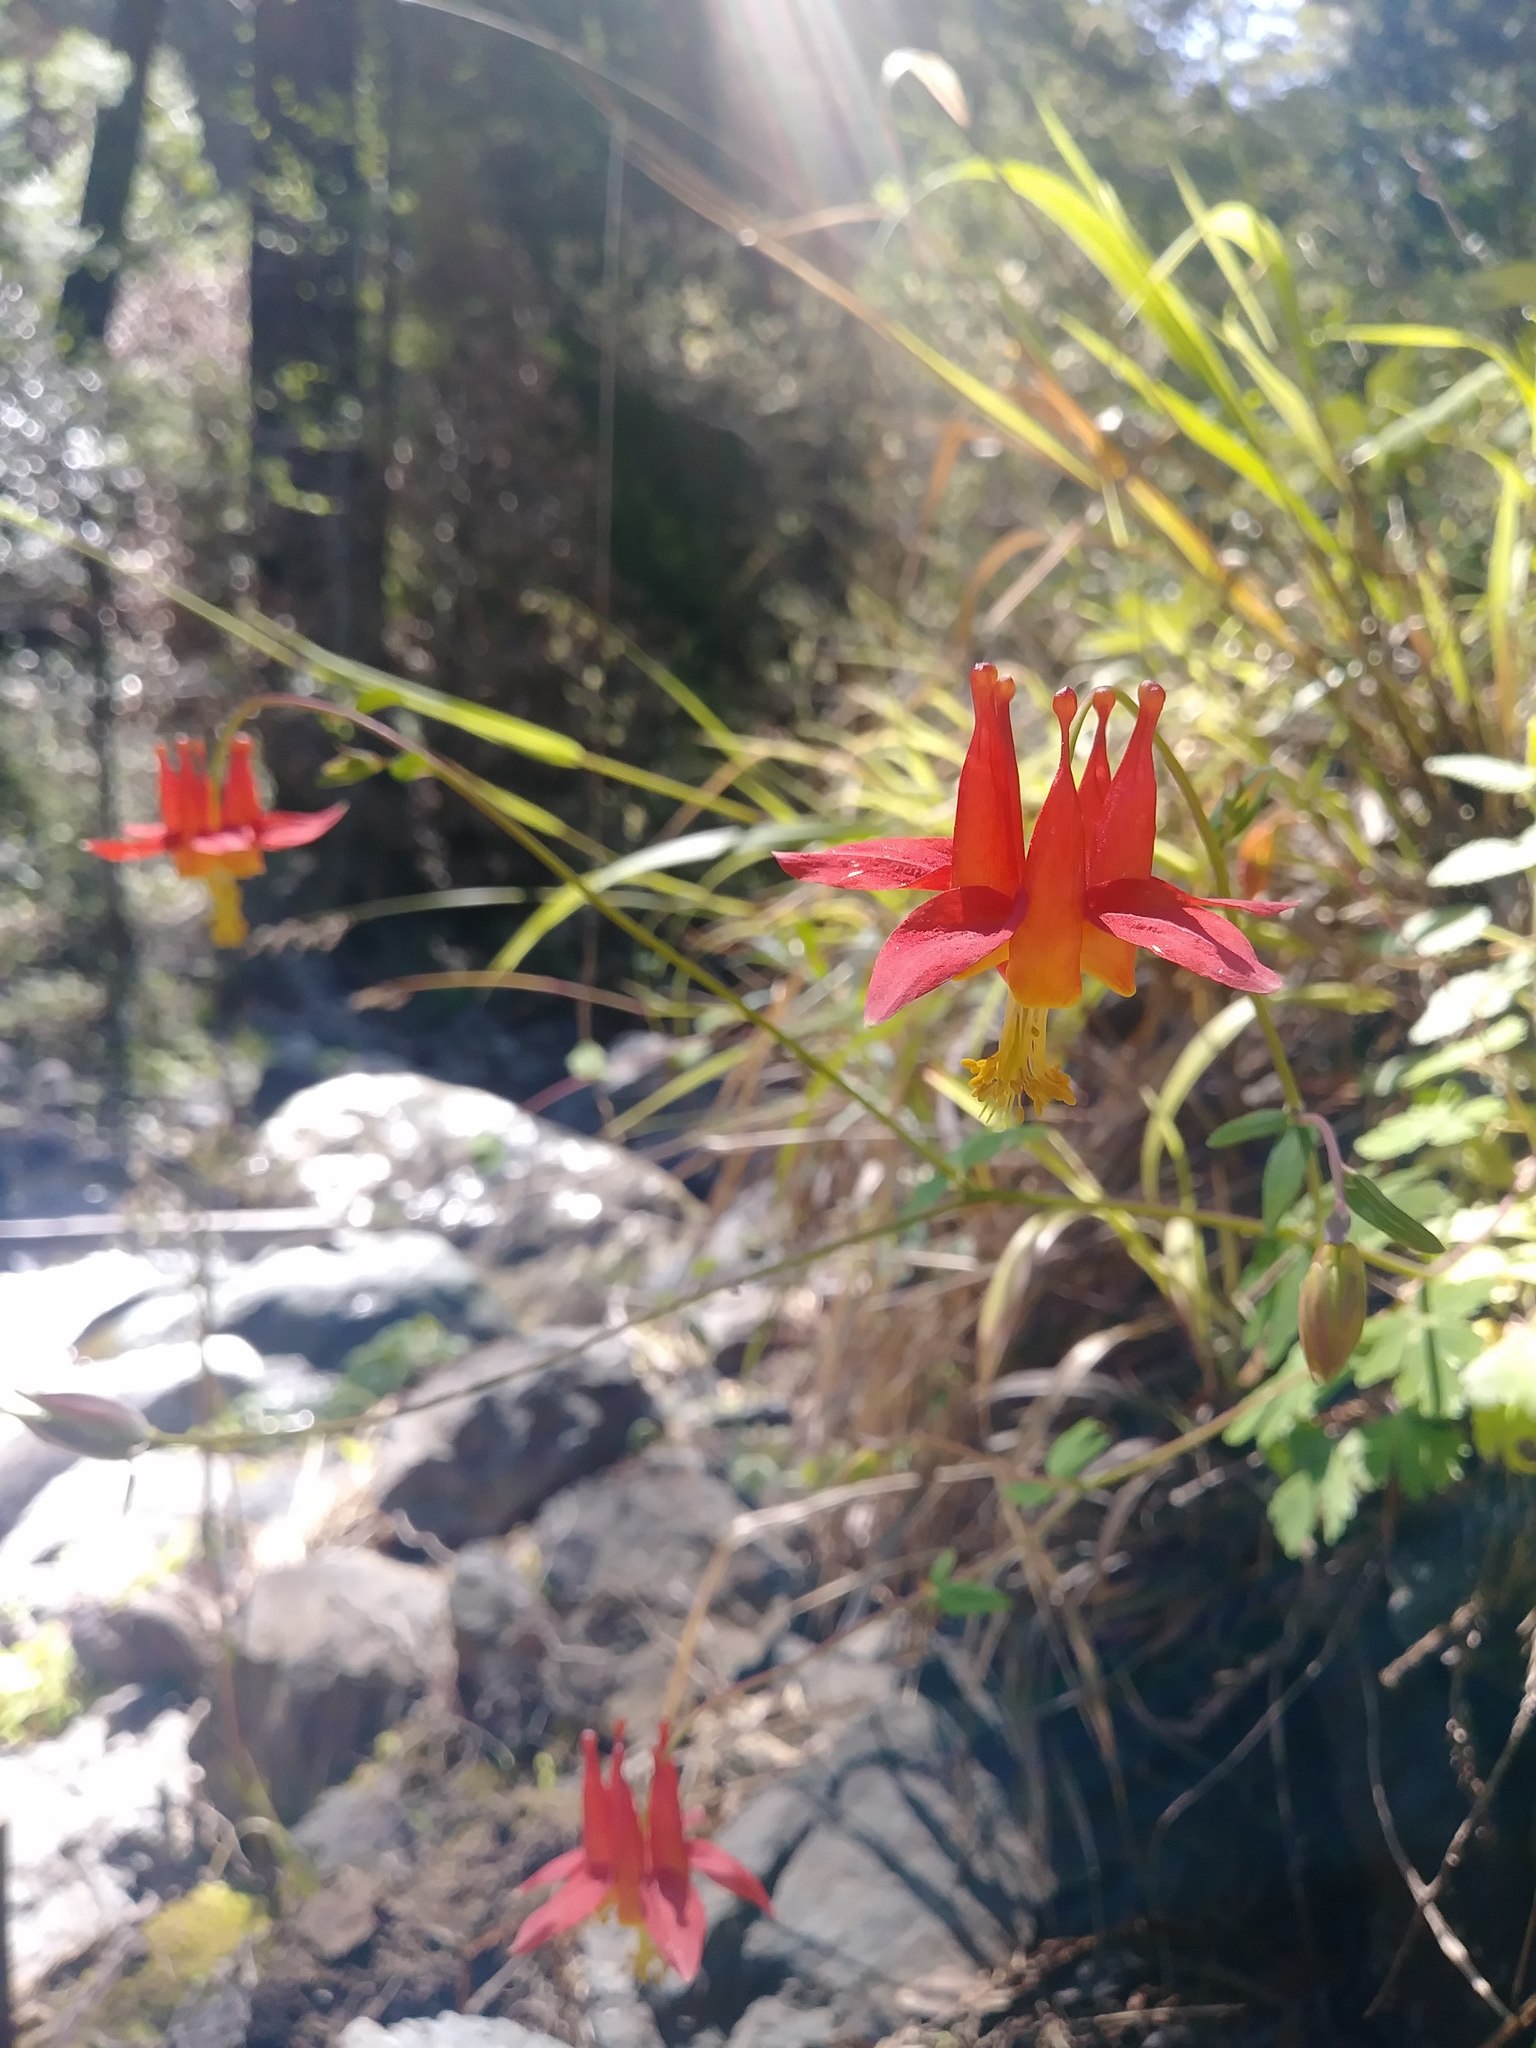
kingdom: Plantae
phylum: Tracheophyta
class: Magnoliopsida
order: Ranunculales
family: Ranunculaceae
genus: Aquilegia
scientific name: Aquilegia formosa
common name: Sitka columbine
